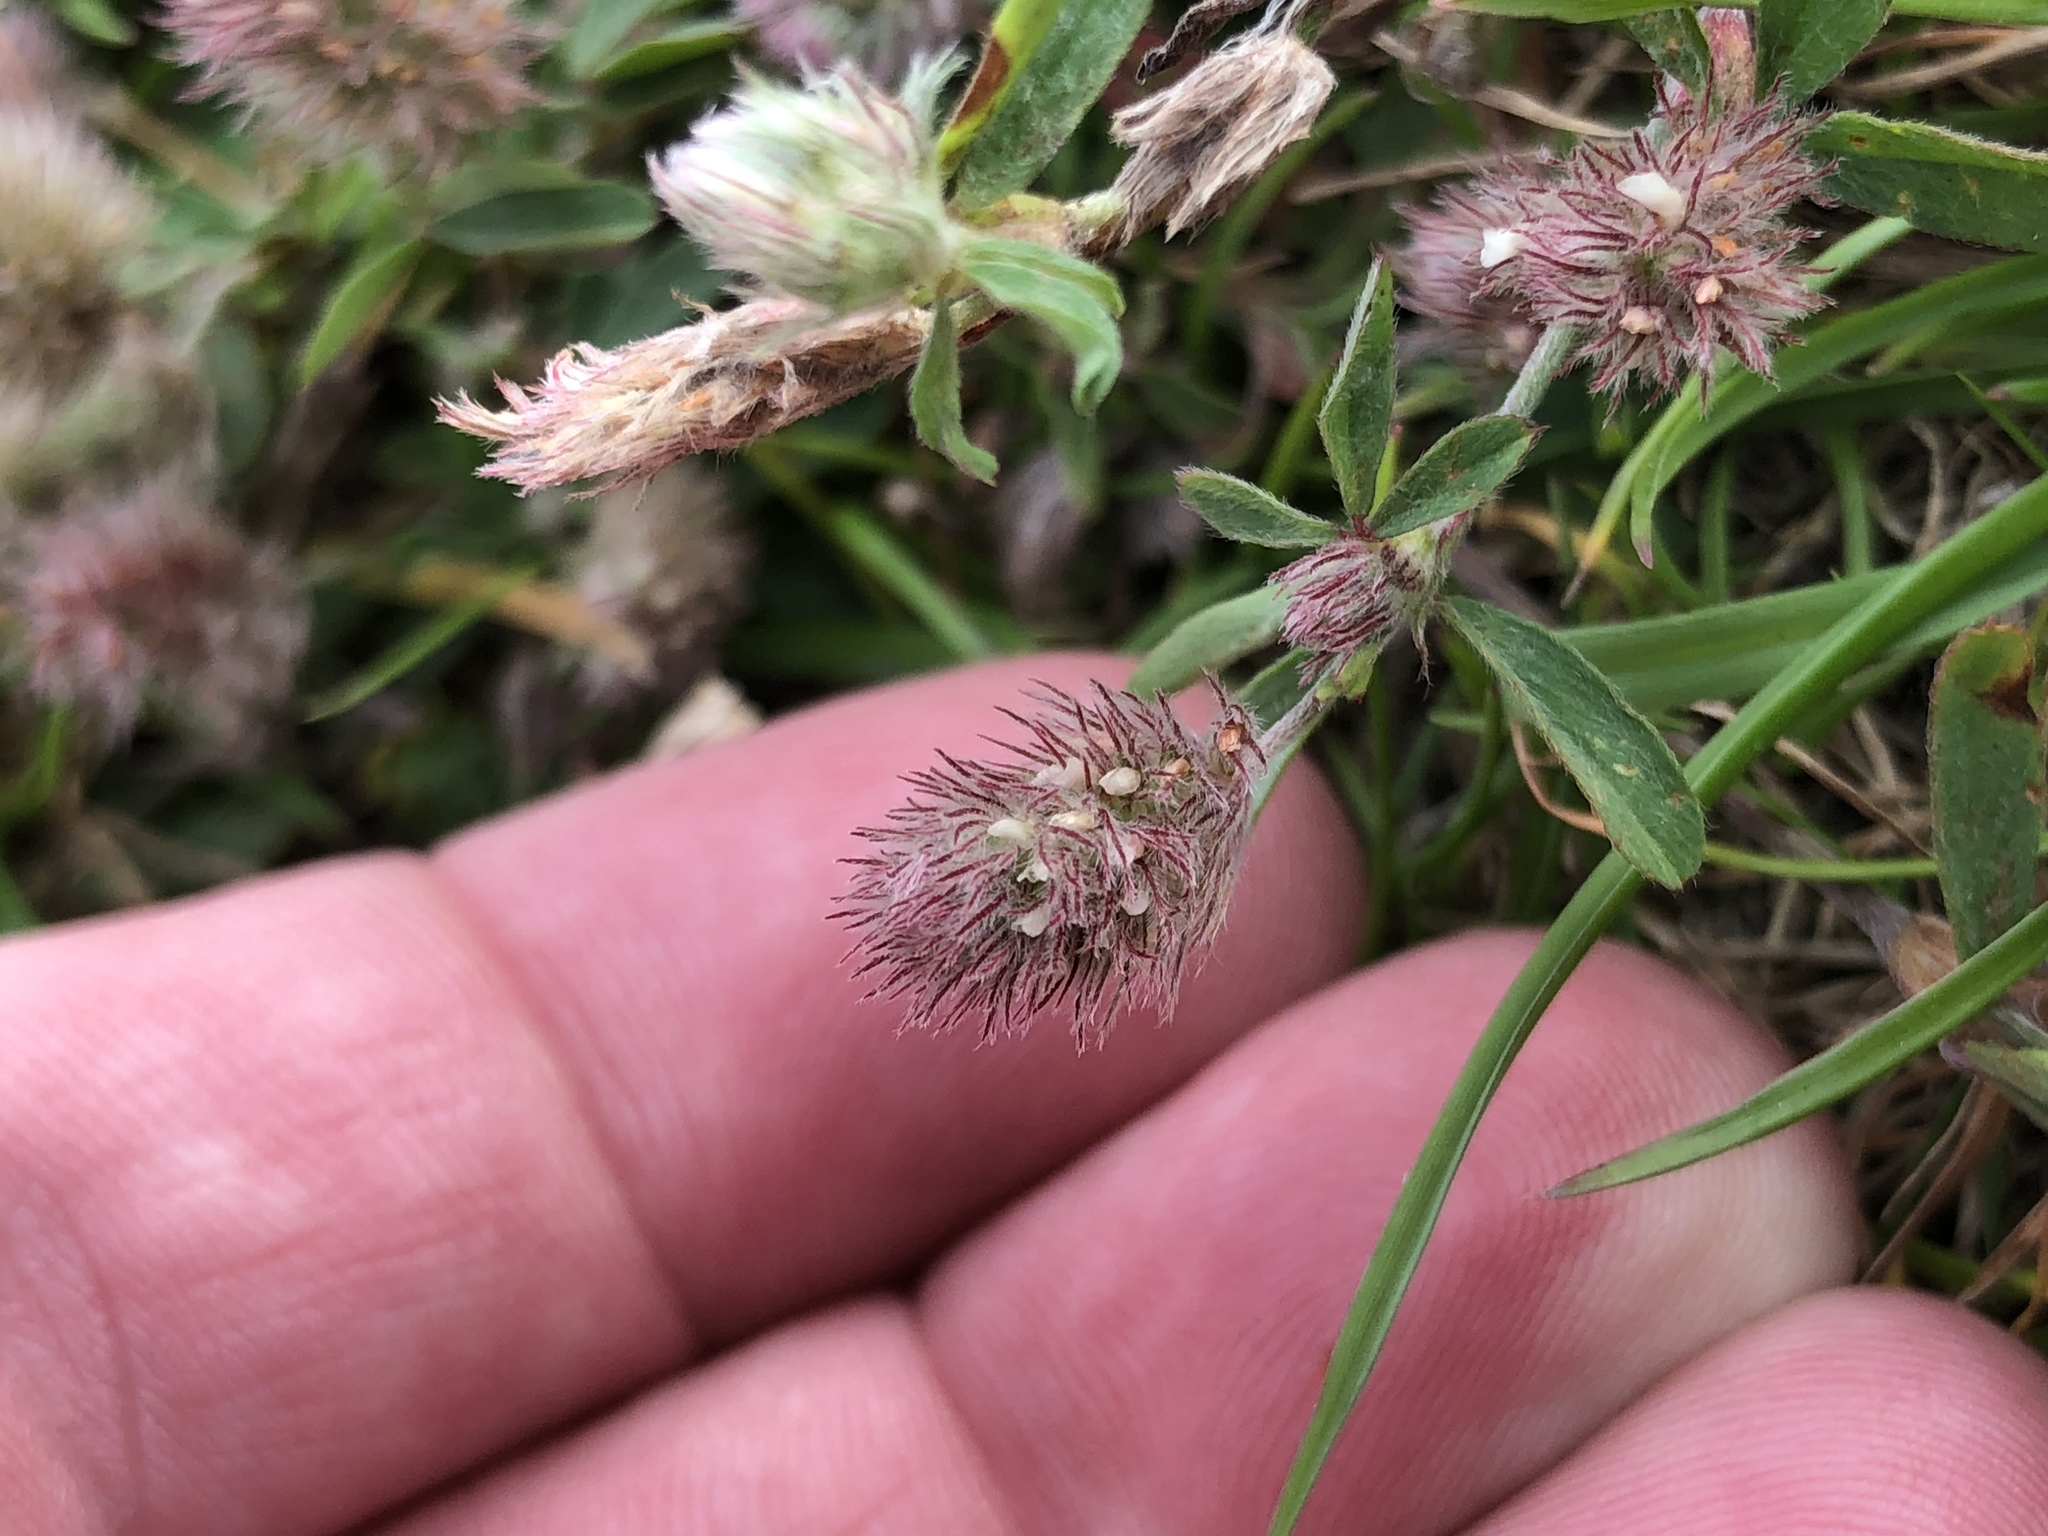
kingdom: Plantae
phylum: Tracheophyta
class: Magnoliopsida
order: Fabales
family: Fabaceae
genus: Trifolium
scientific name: Trifolium arvense
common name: Hare's-foot clover
